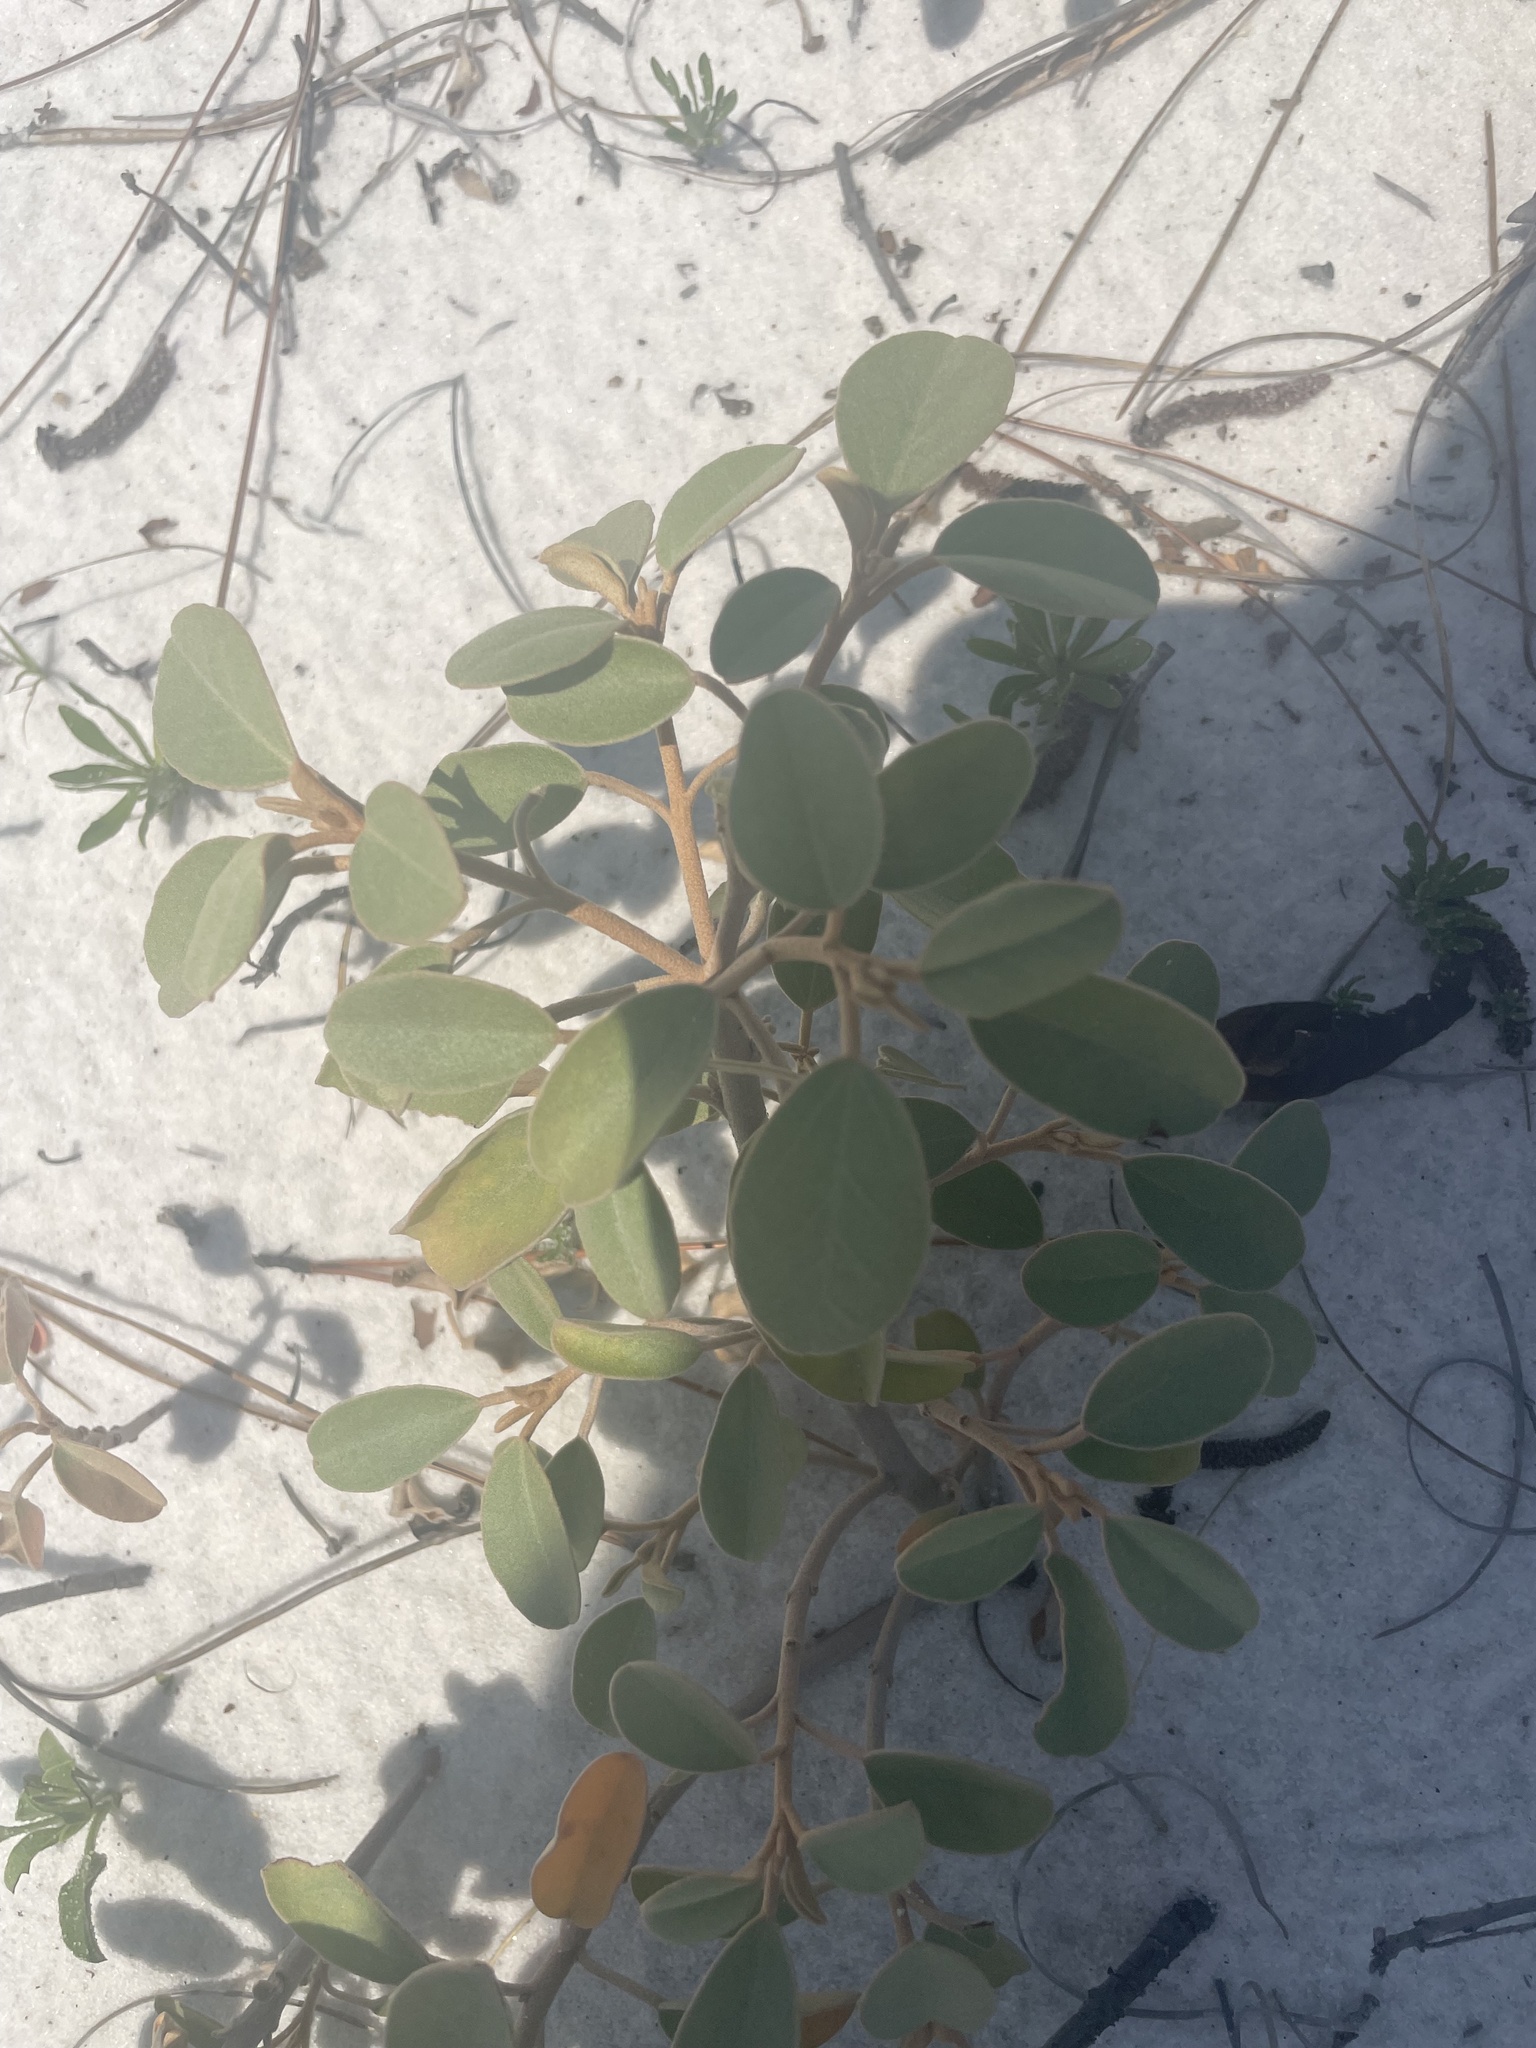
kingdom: Plantae
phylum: Tracheophyta
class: Magnoliopsida
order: Malpighiales
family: Euphorbiaceae
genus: Croton
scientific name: Croton punctatus
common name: Beach-tea
